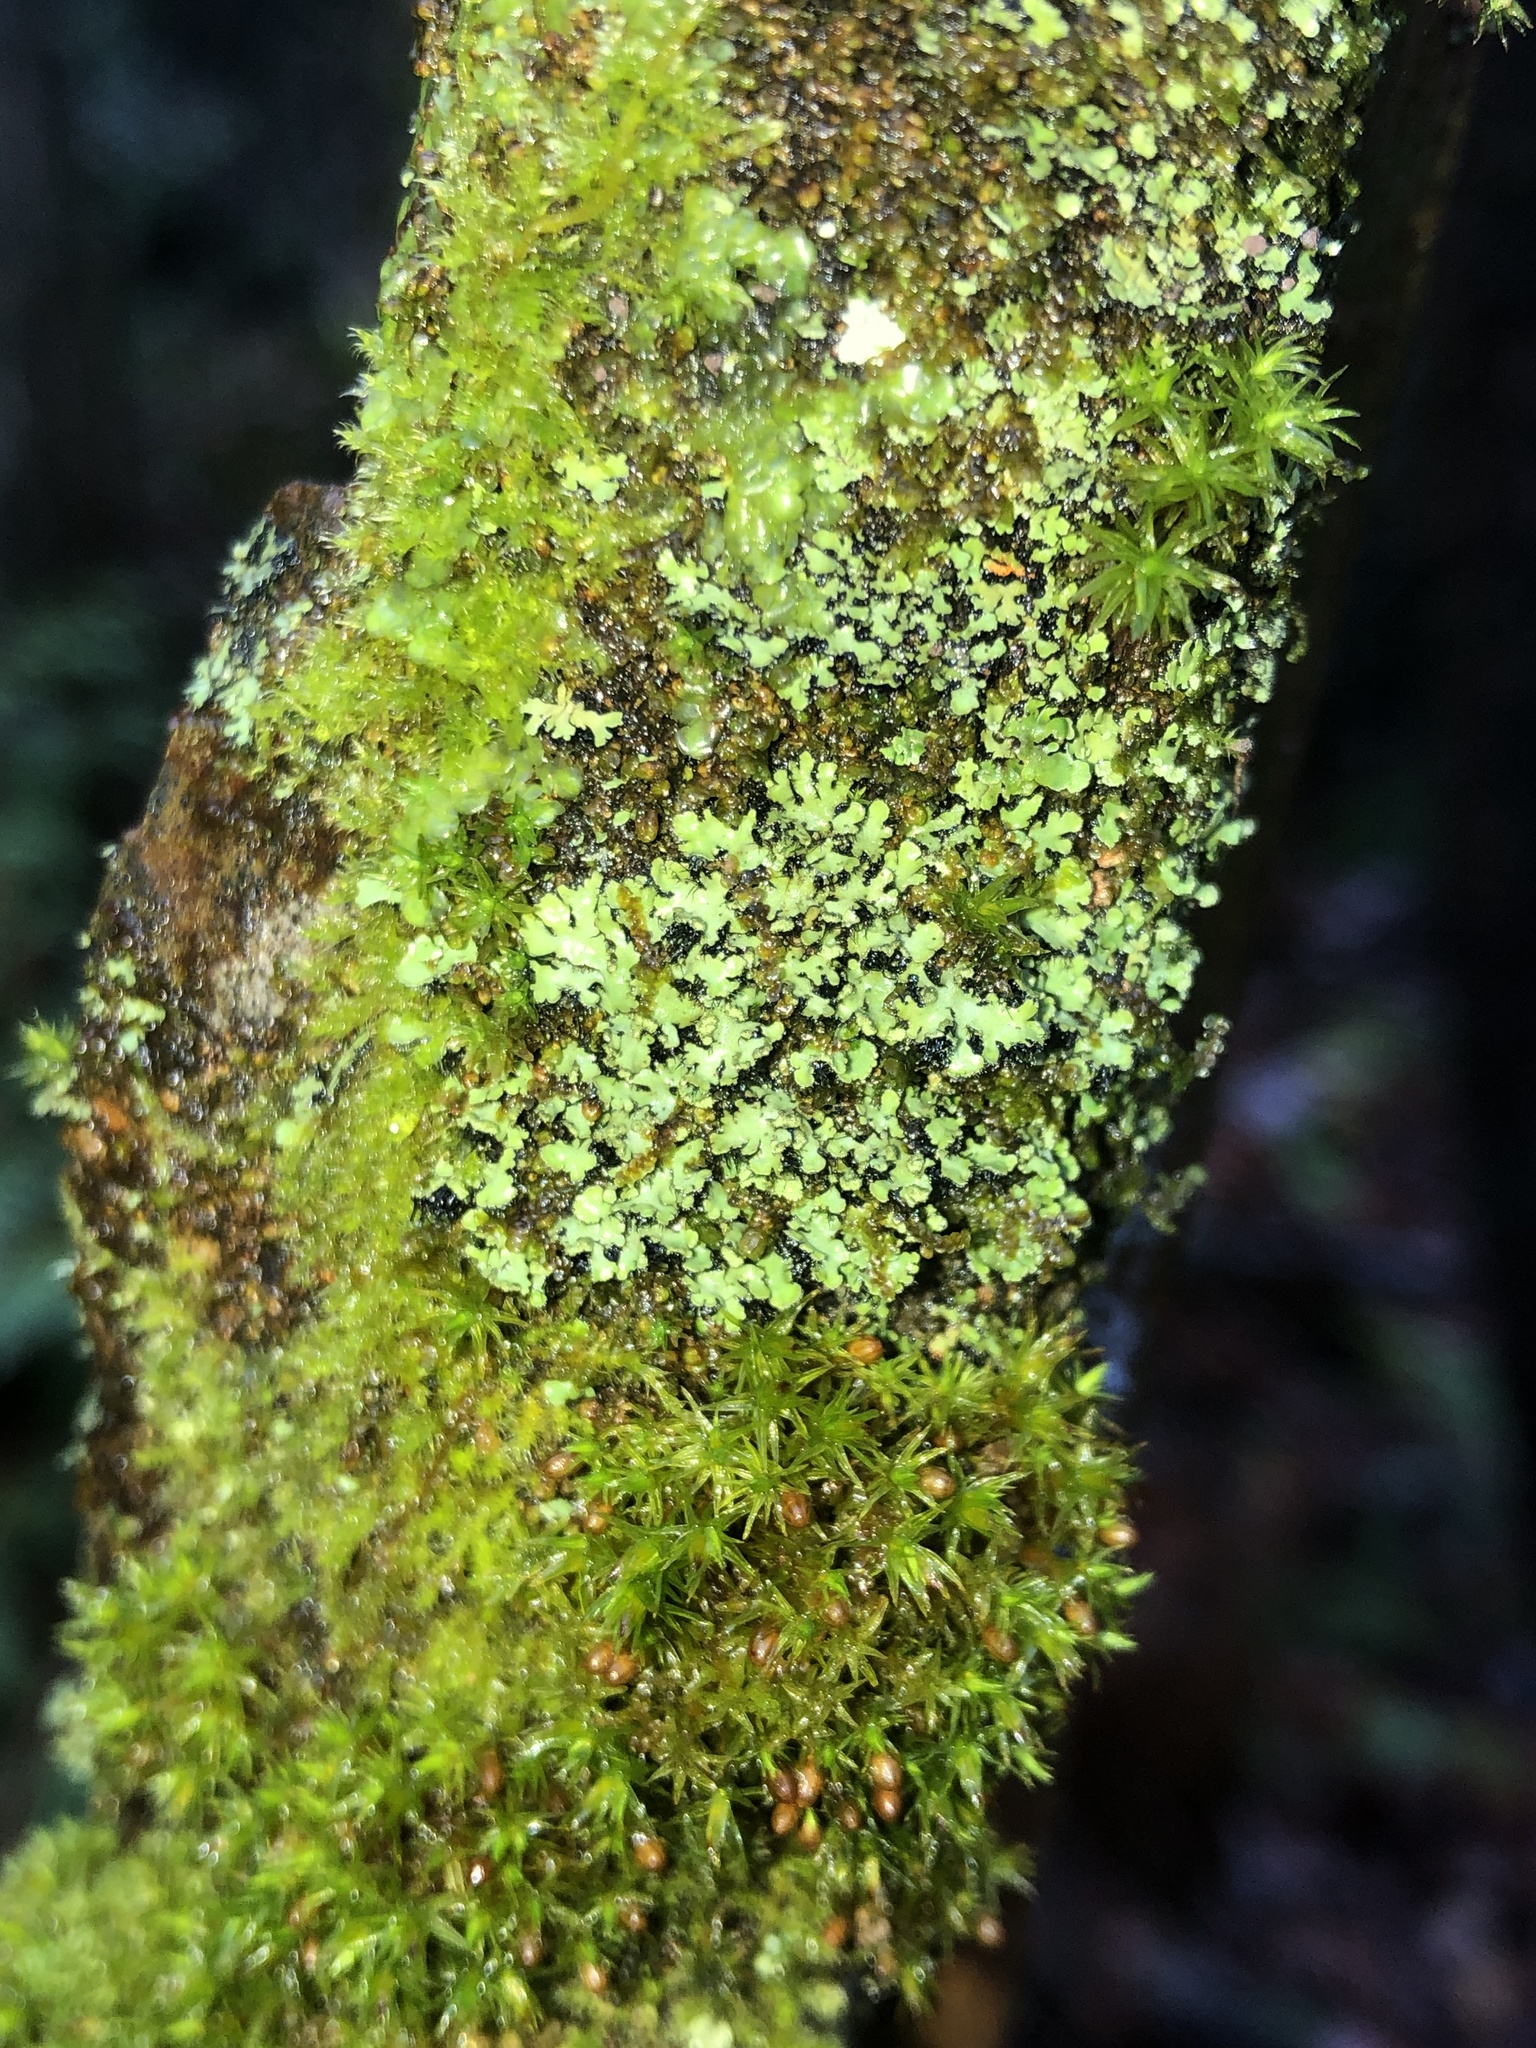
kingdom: Fungi
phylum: Ascomycota
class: Lecanoromycetes
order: Caliciales
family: Physciaceae
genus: Phaeophyscia
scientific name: Phaeophyscia rubropulchra
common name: Orange-cored shadow lichen
